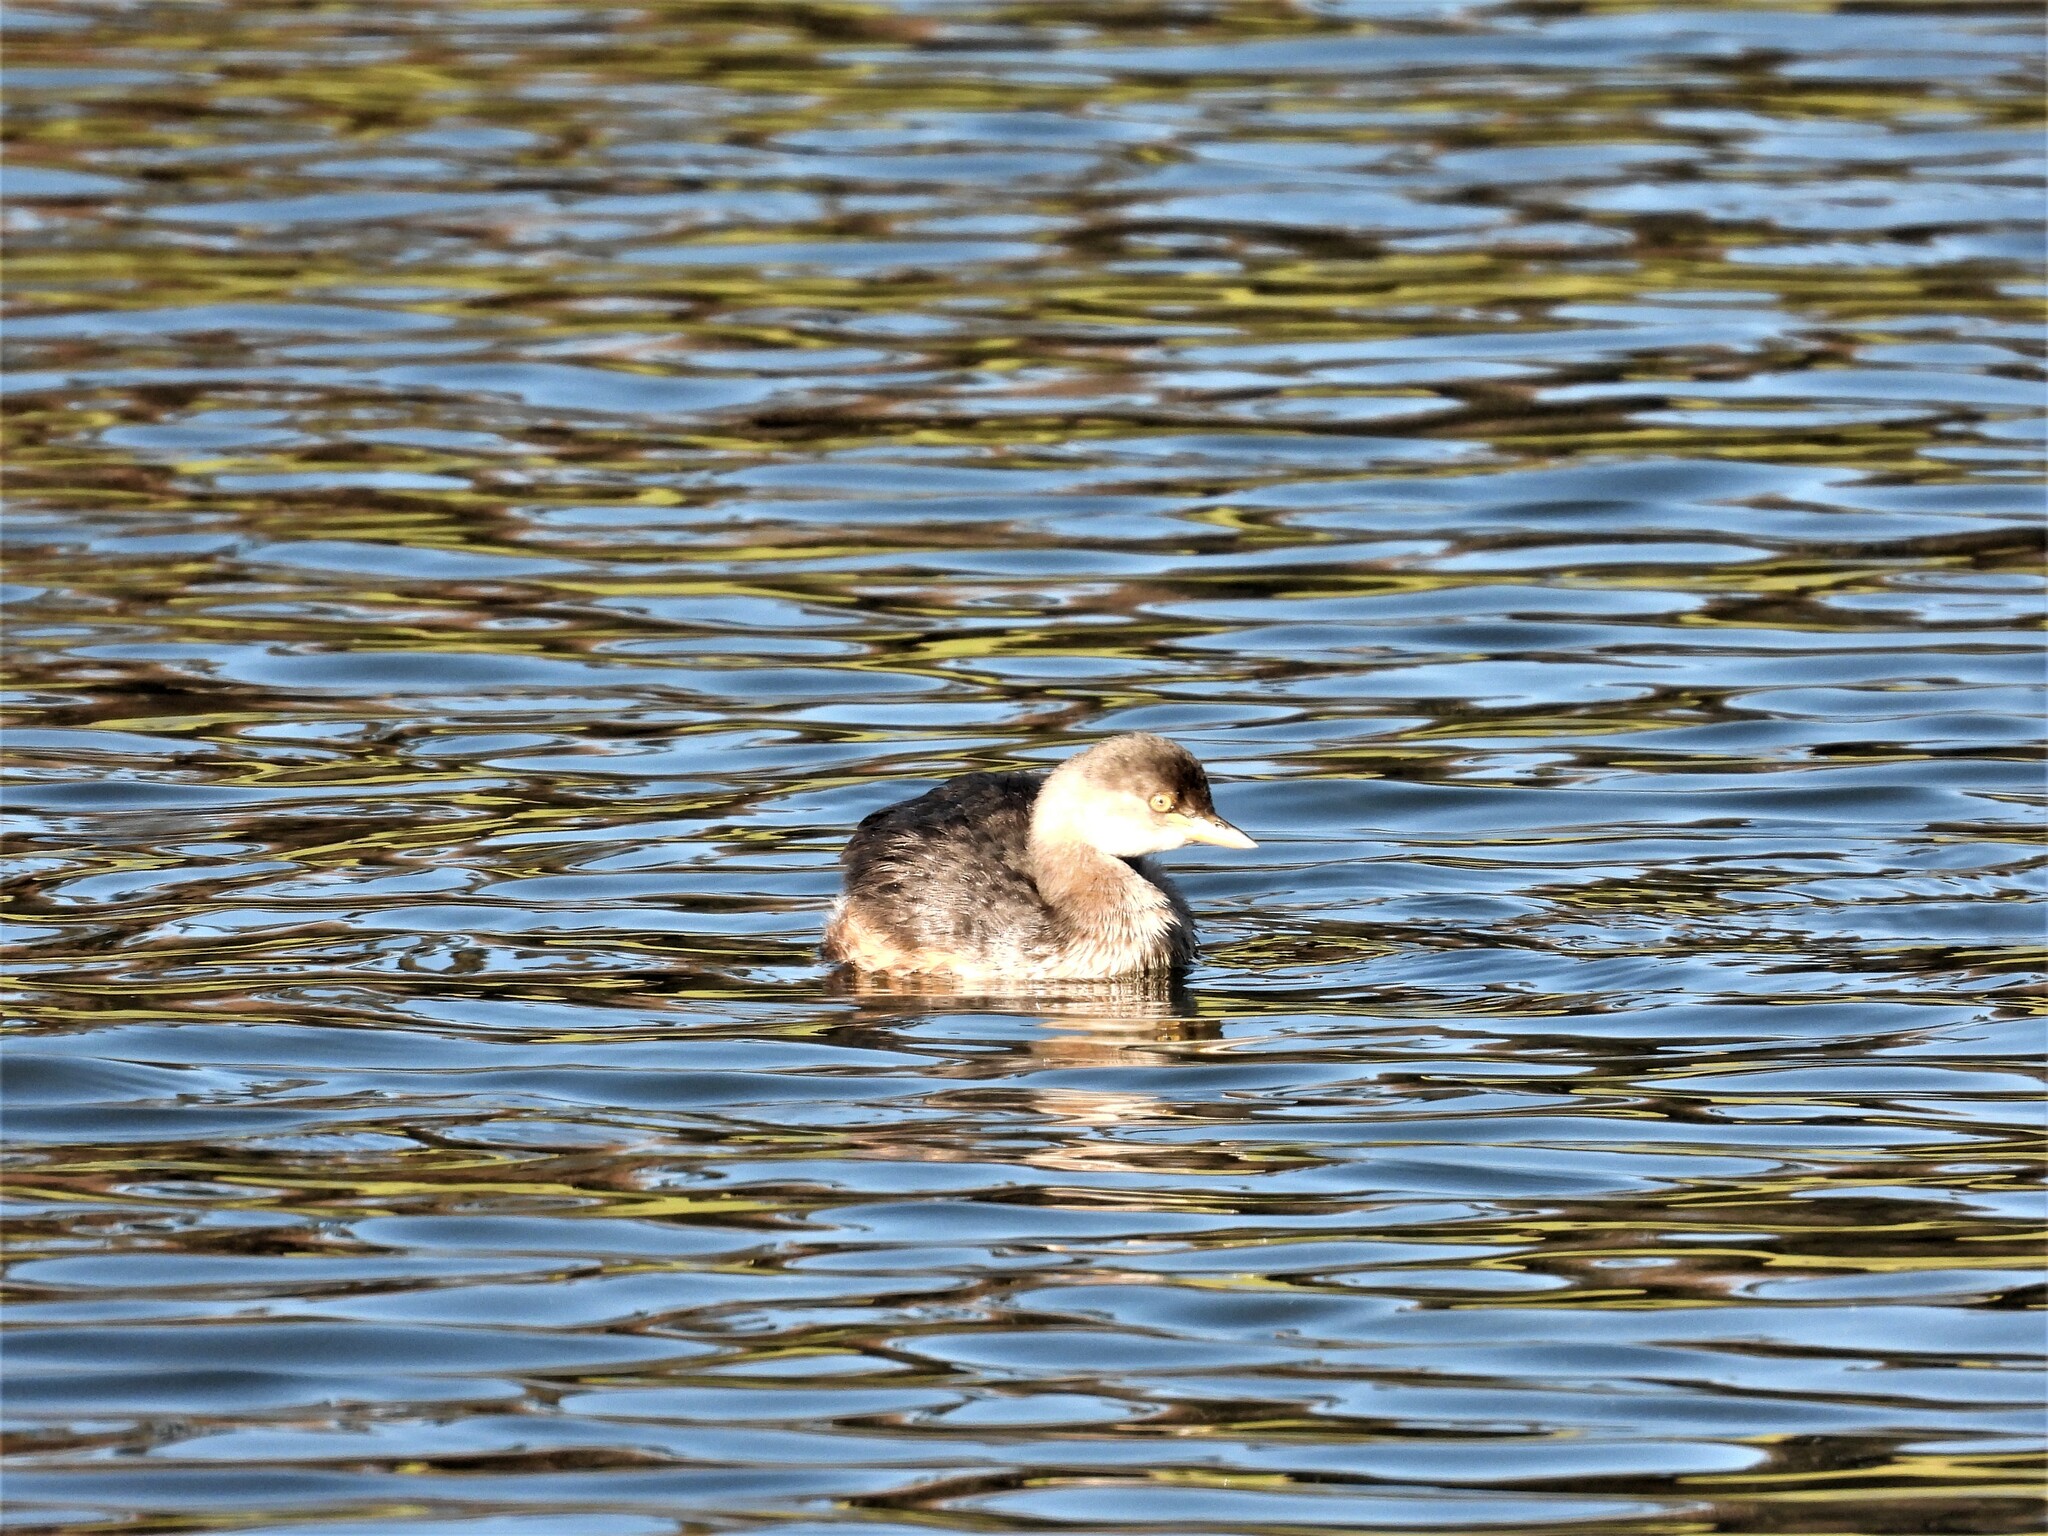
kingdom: Animalia
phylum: Chordata
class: Aves
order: Podicipediformes
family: Podicipedidae
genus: Tachybaptus
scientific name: Tachybaptus novaehollandiae
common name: Australasian grebe
